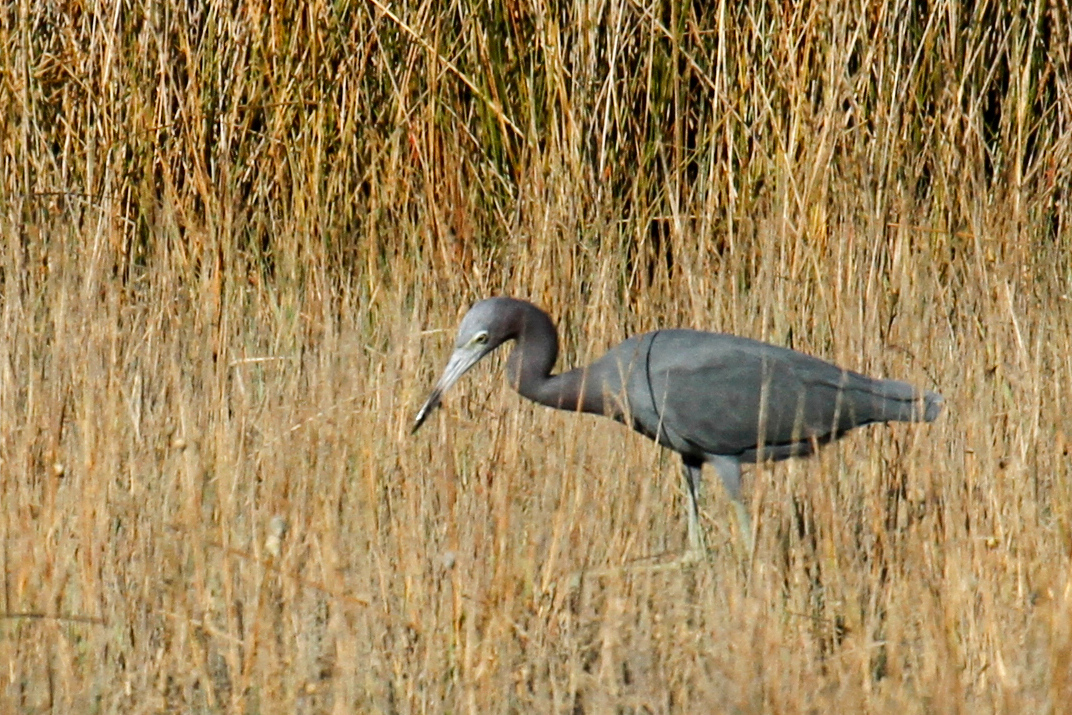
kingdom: Animalia
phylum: Chordata
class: Aves
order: Pelecaniformes
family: Ardeidae
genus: Egretta
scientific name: Egretta caerulea
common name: Little blue heron
